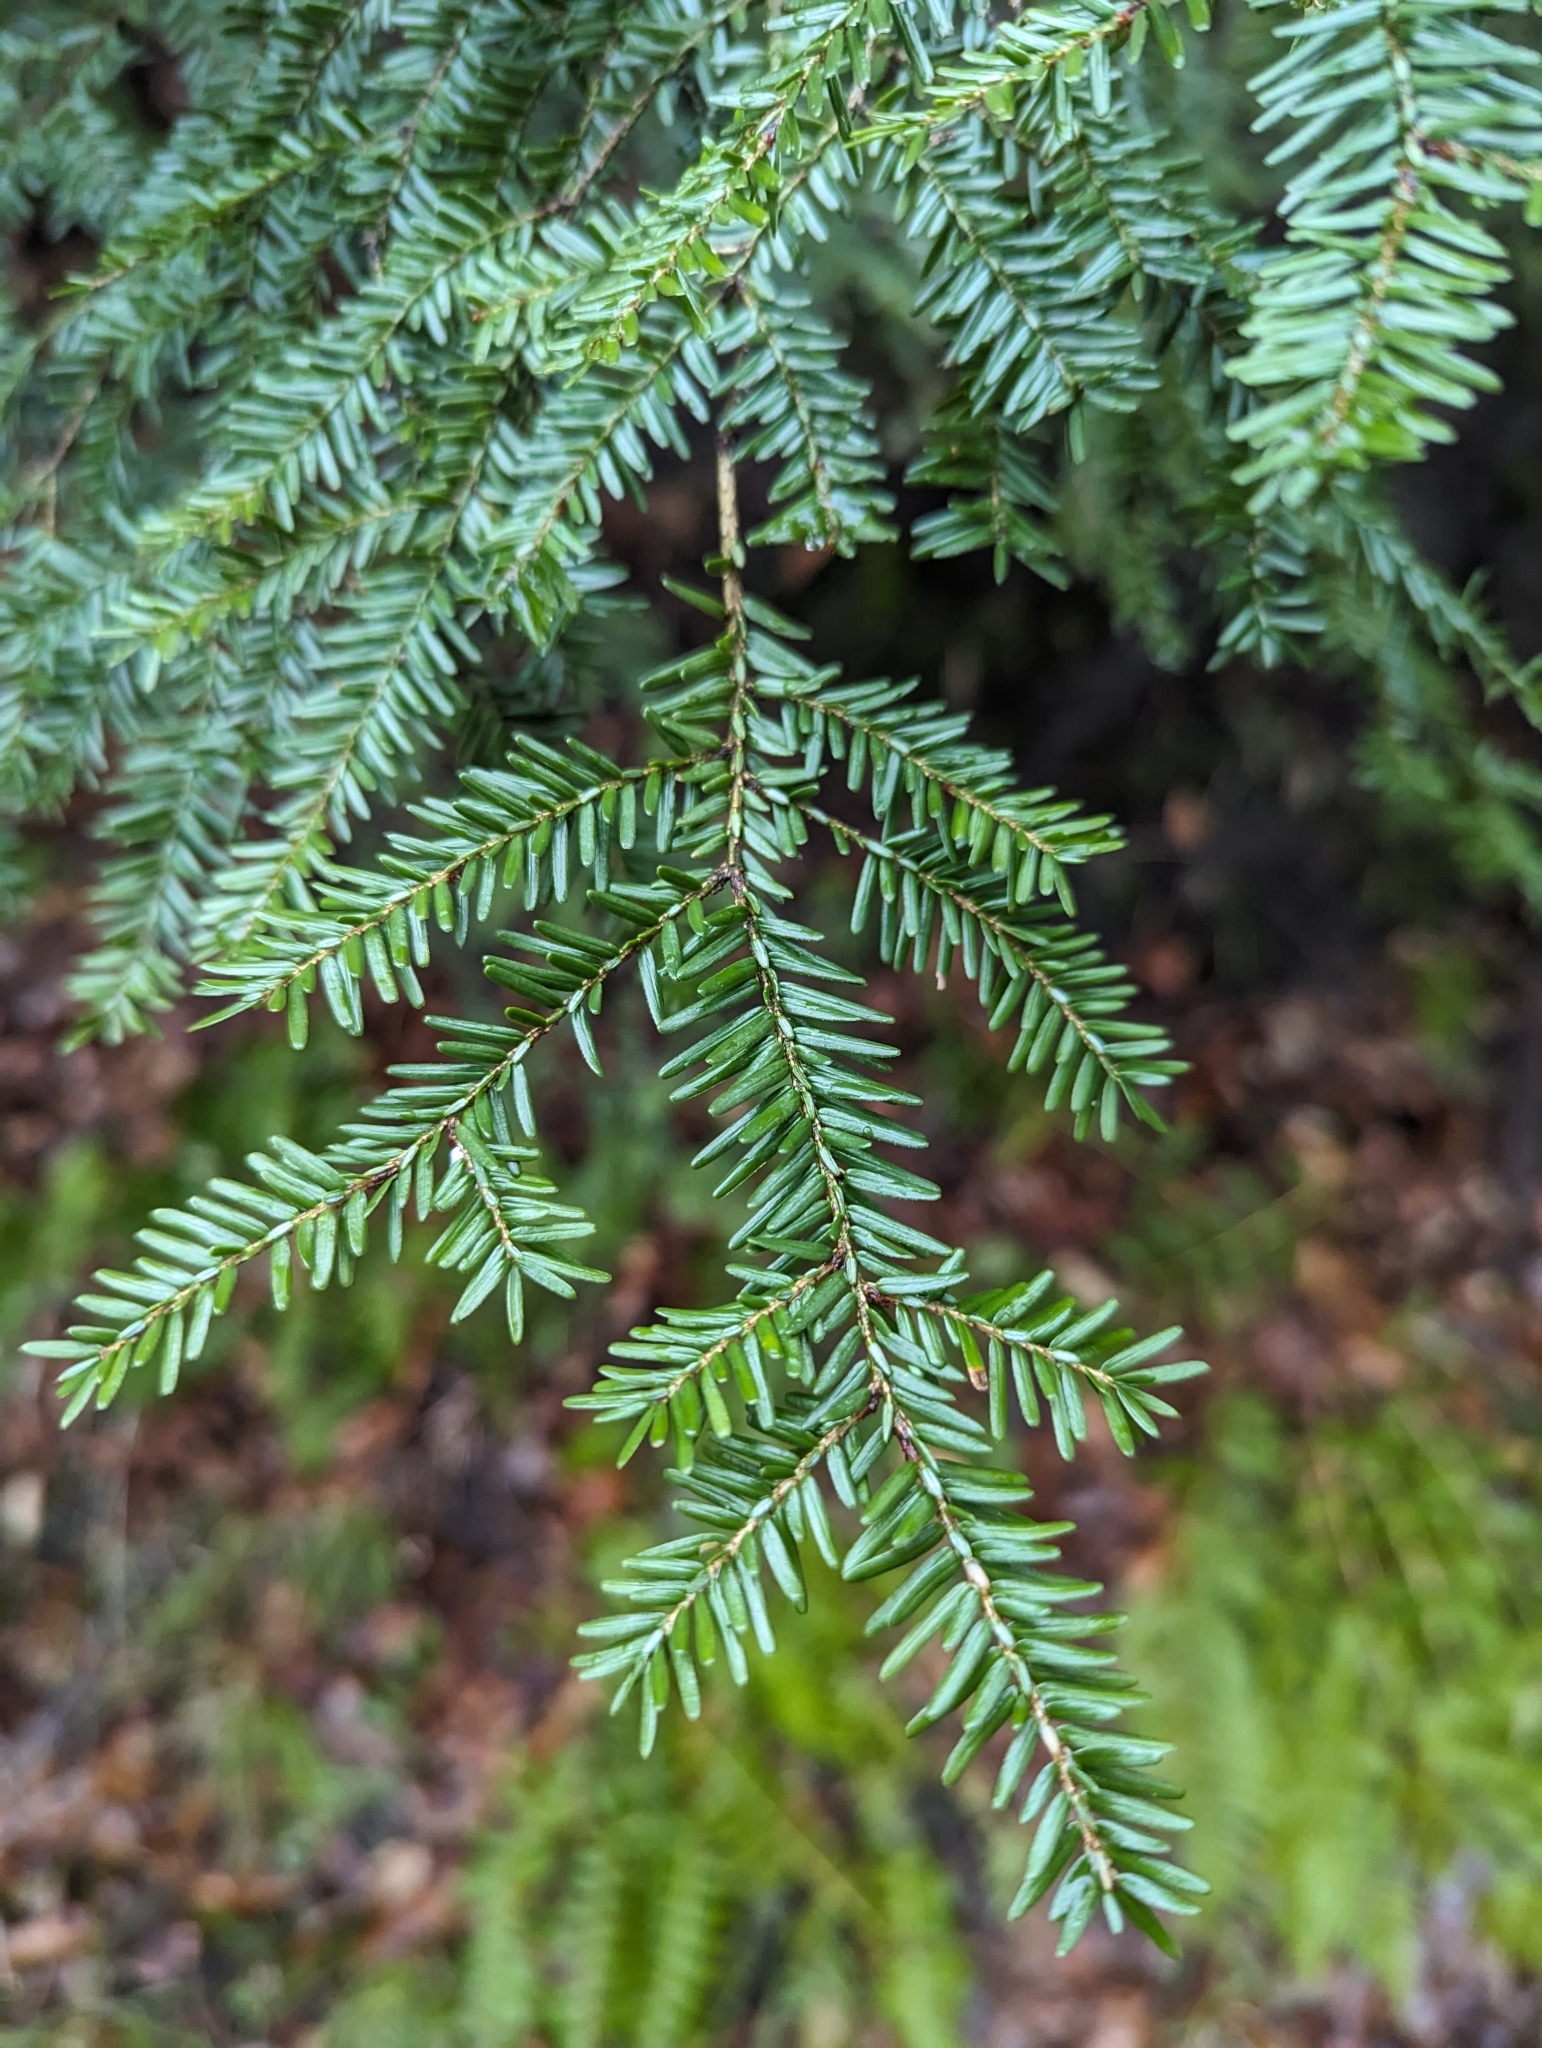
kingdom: Plantae
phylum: Tracheophyta
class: Pinopsida
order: Pinales
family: Pinaceae
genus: Tsuga
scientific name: Tsuga canadensis
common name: Eastern hemlock
